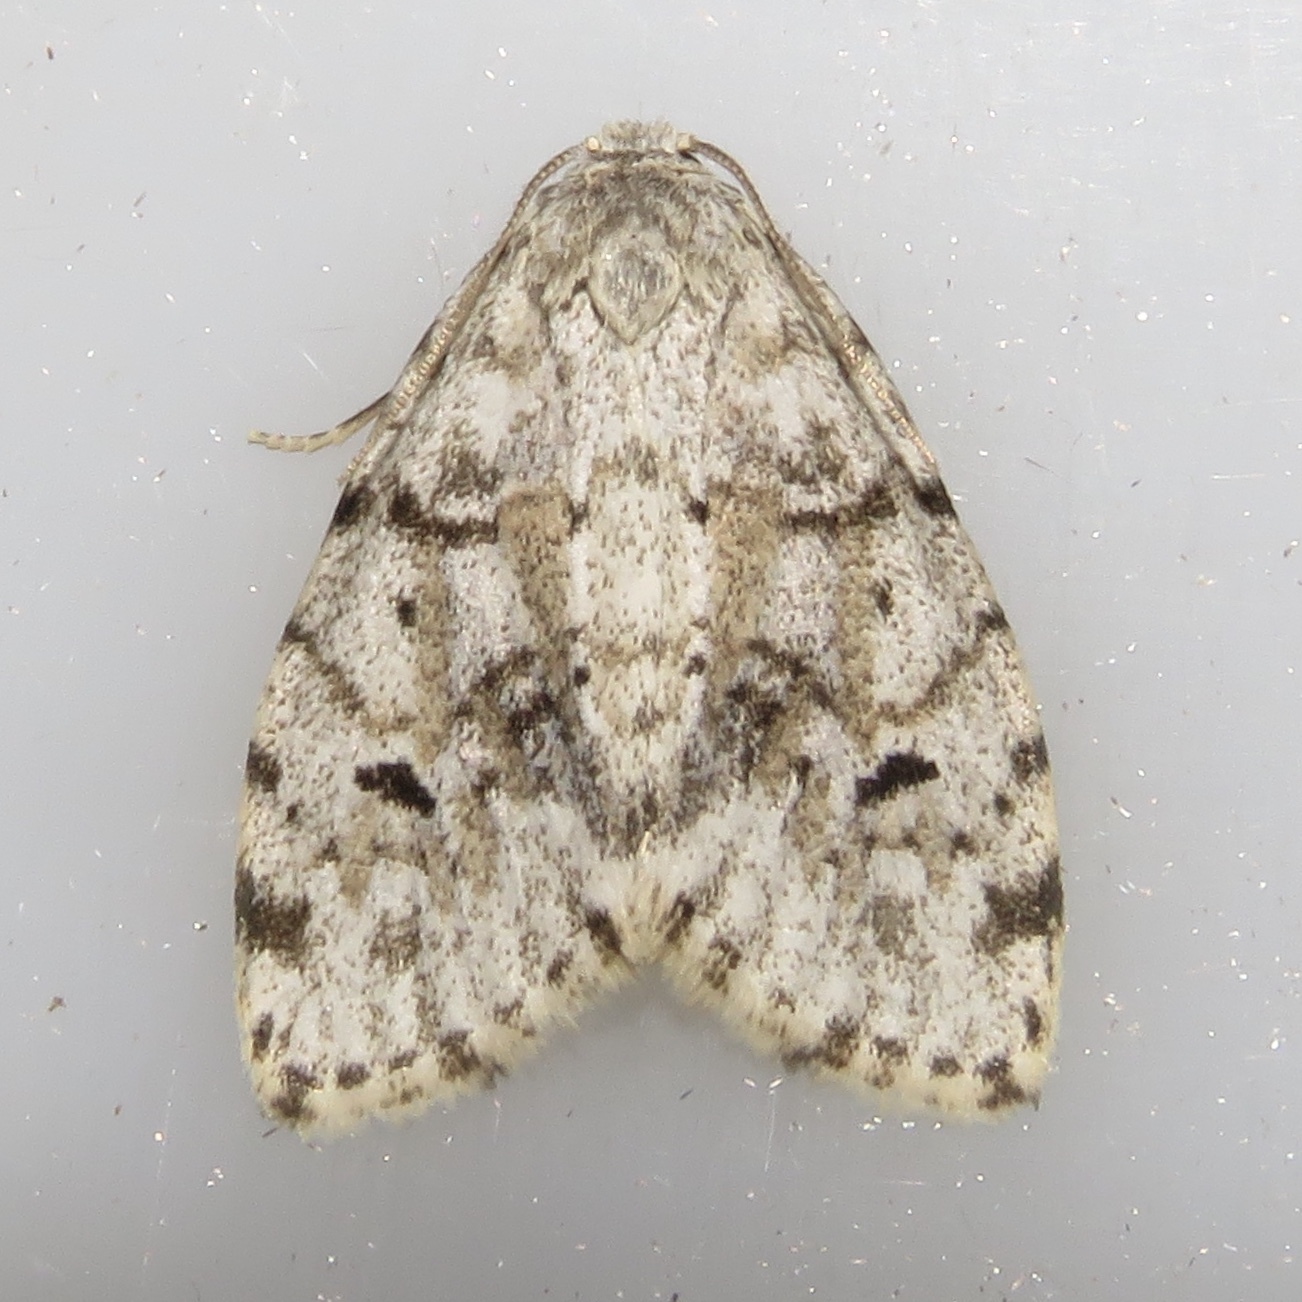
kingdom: Animalia
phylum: Arthropoda
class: Insecta
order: Lepidoptera
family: Erebidae
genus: Clemensia
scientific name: Clemensia albata
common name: Little white lichen moth
